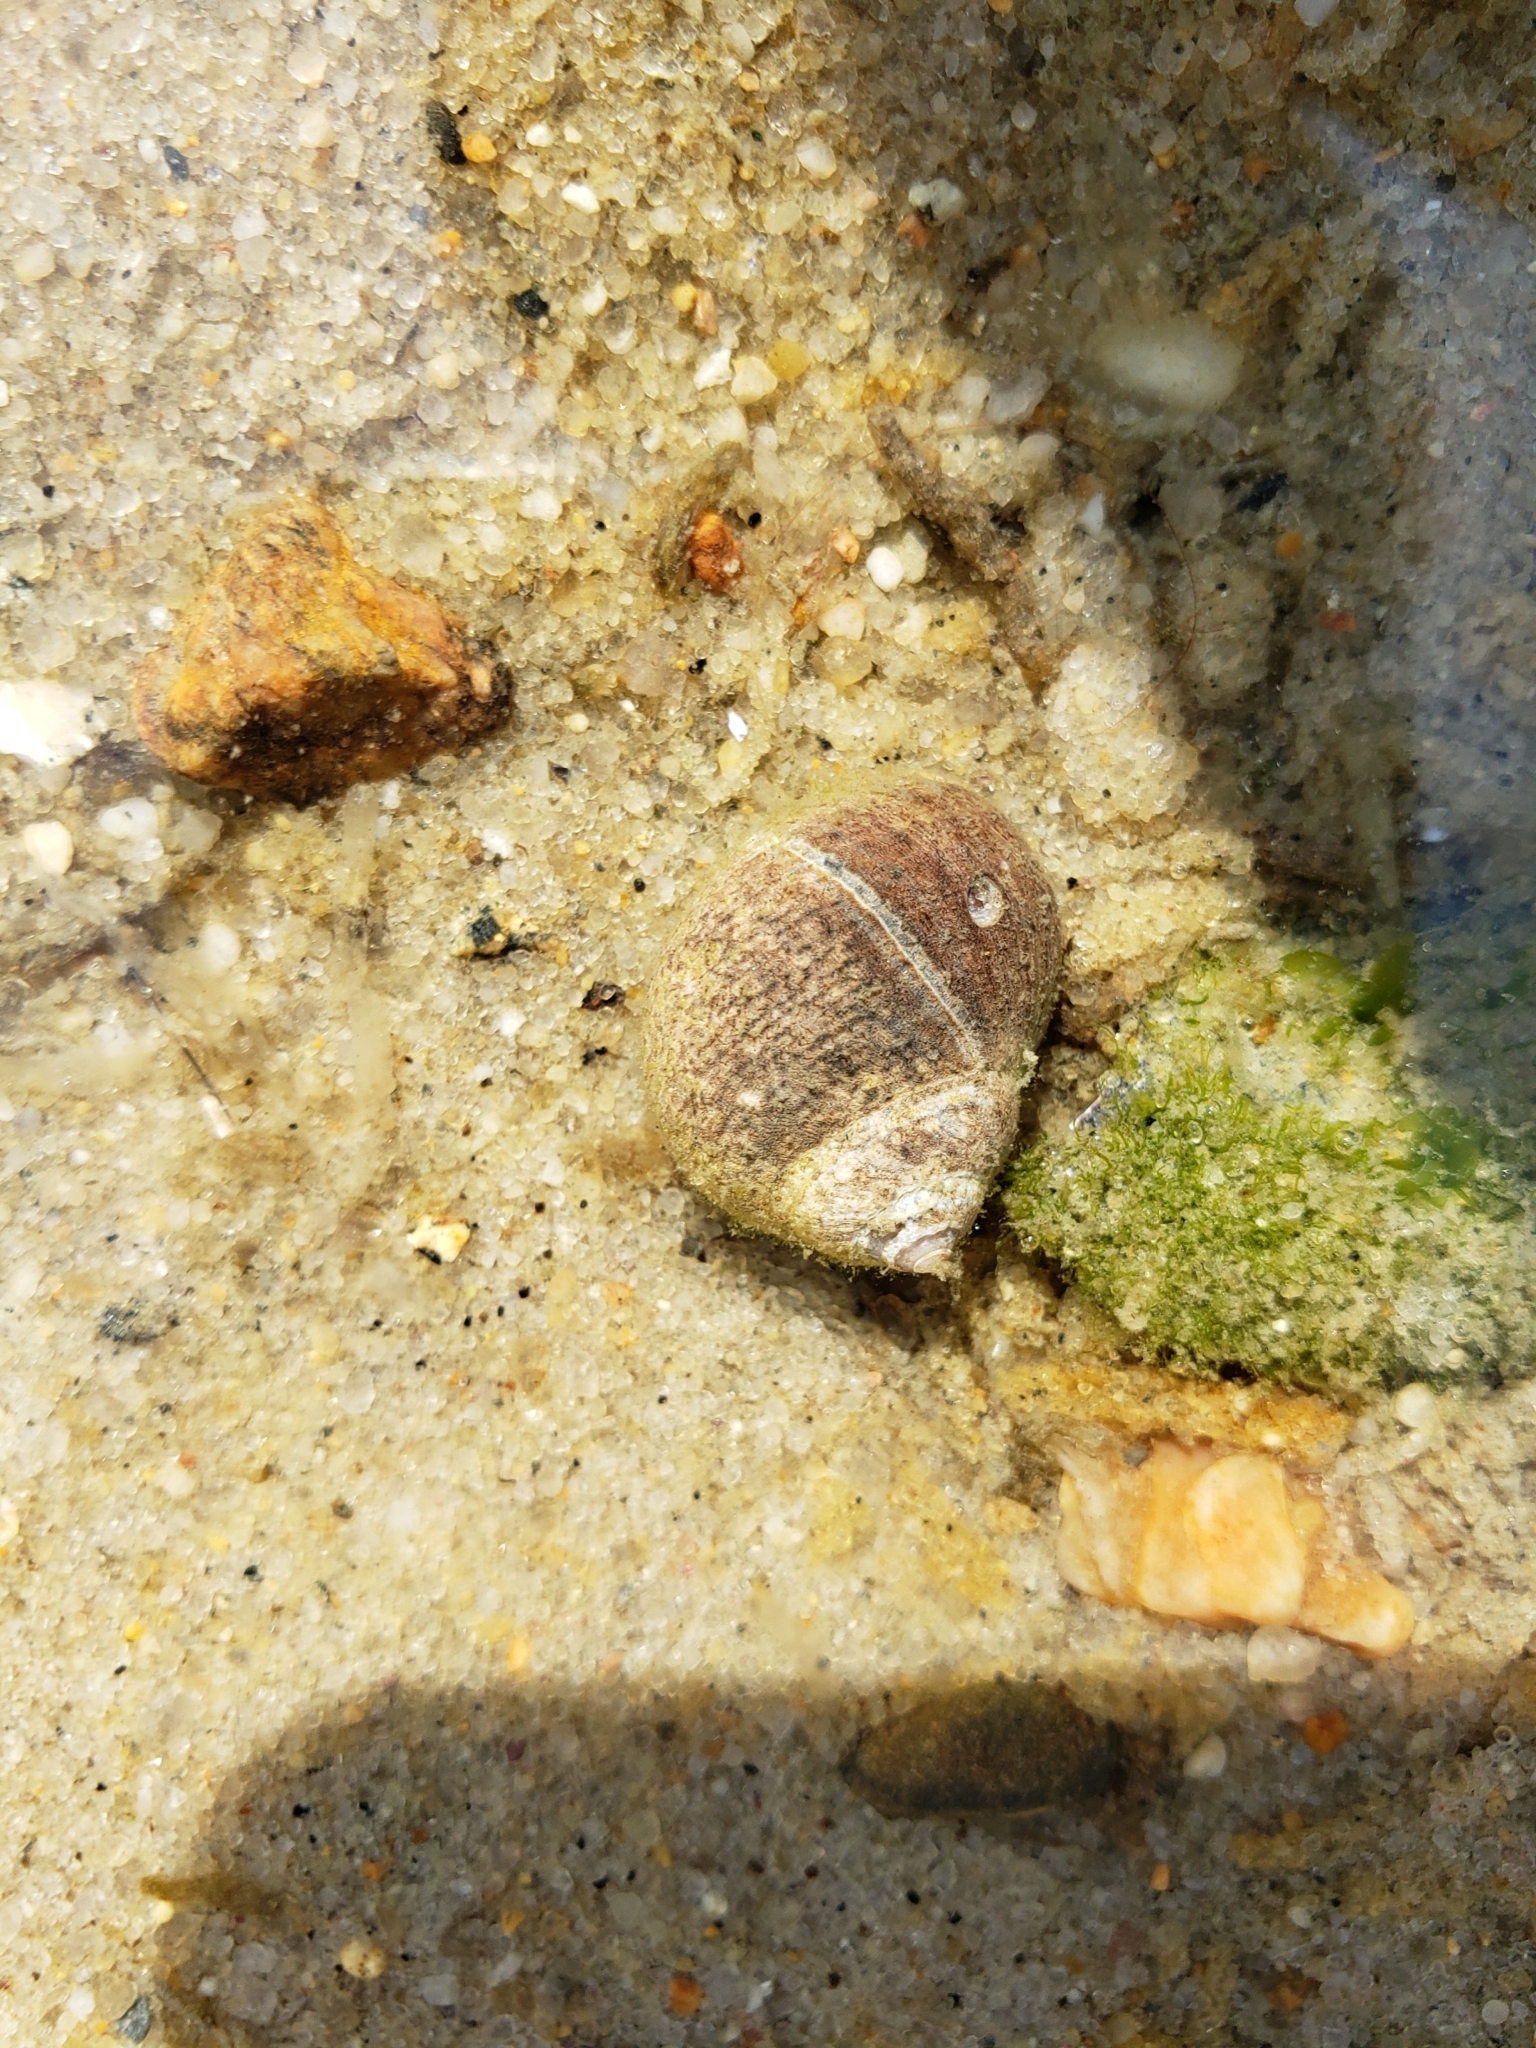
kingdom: Animalia
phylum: Mollusca
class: Gastropoda
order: Littorinimorpha
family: Littorinidae
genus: Littorina
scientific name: Littorina littorea
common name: Common periwinkle
